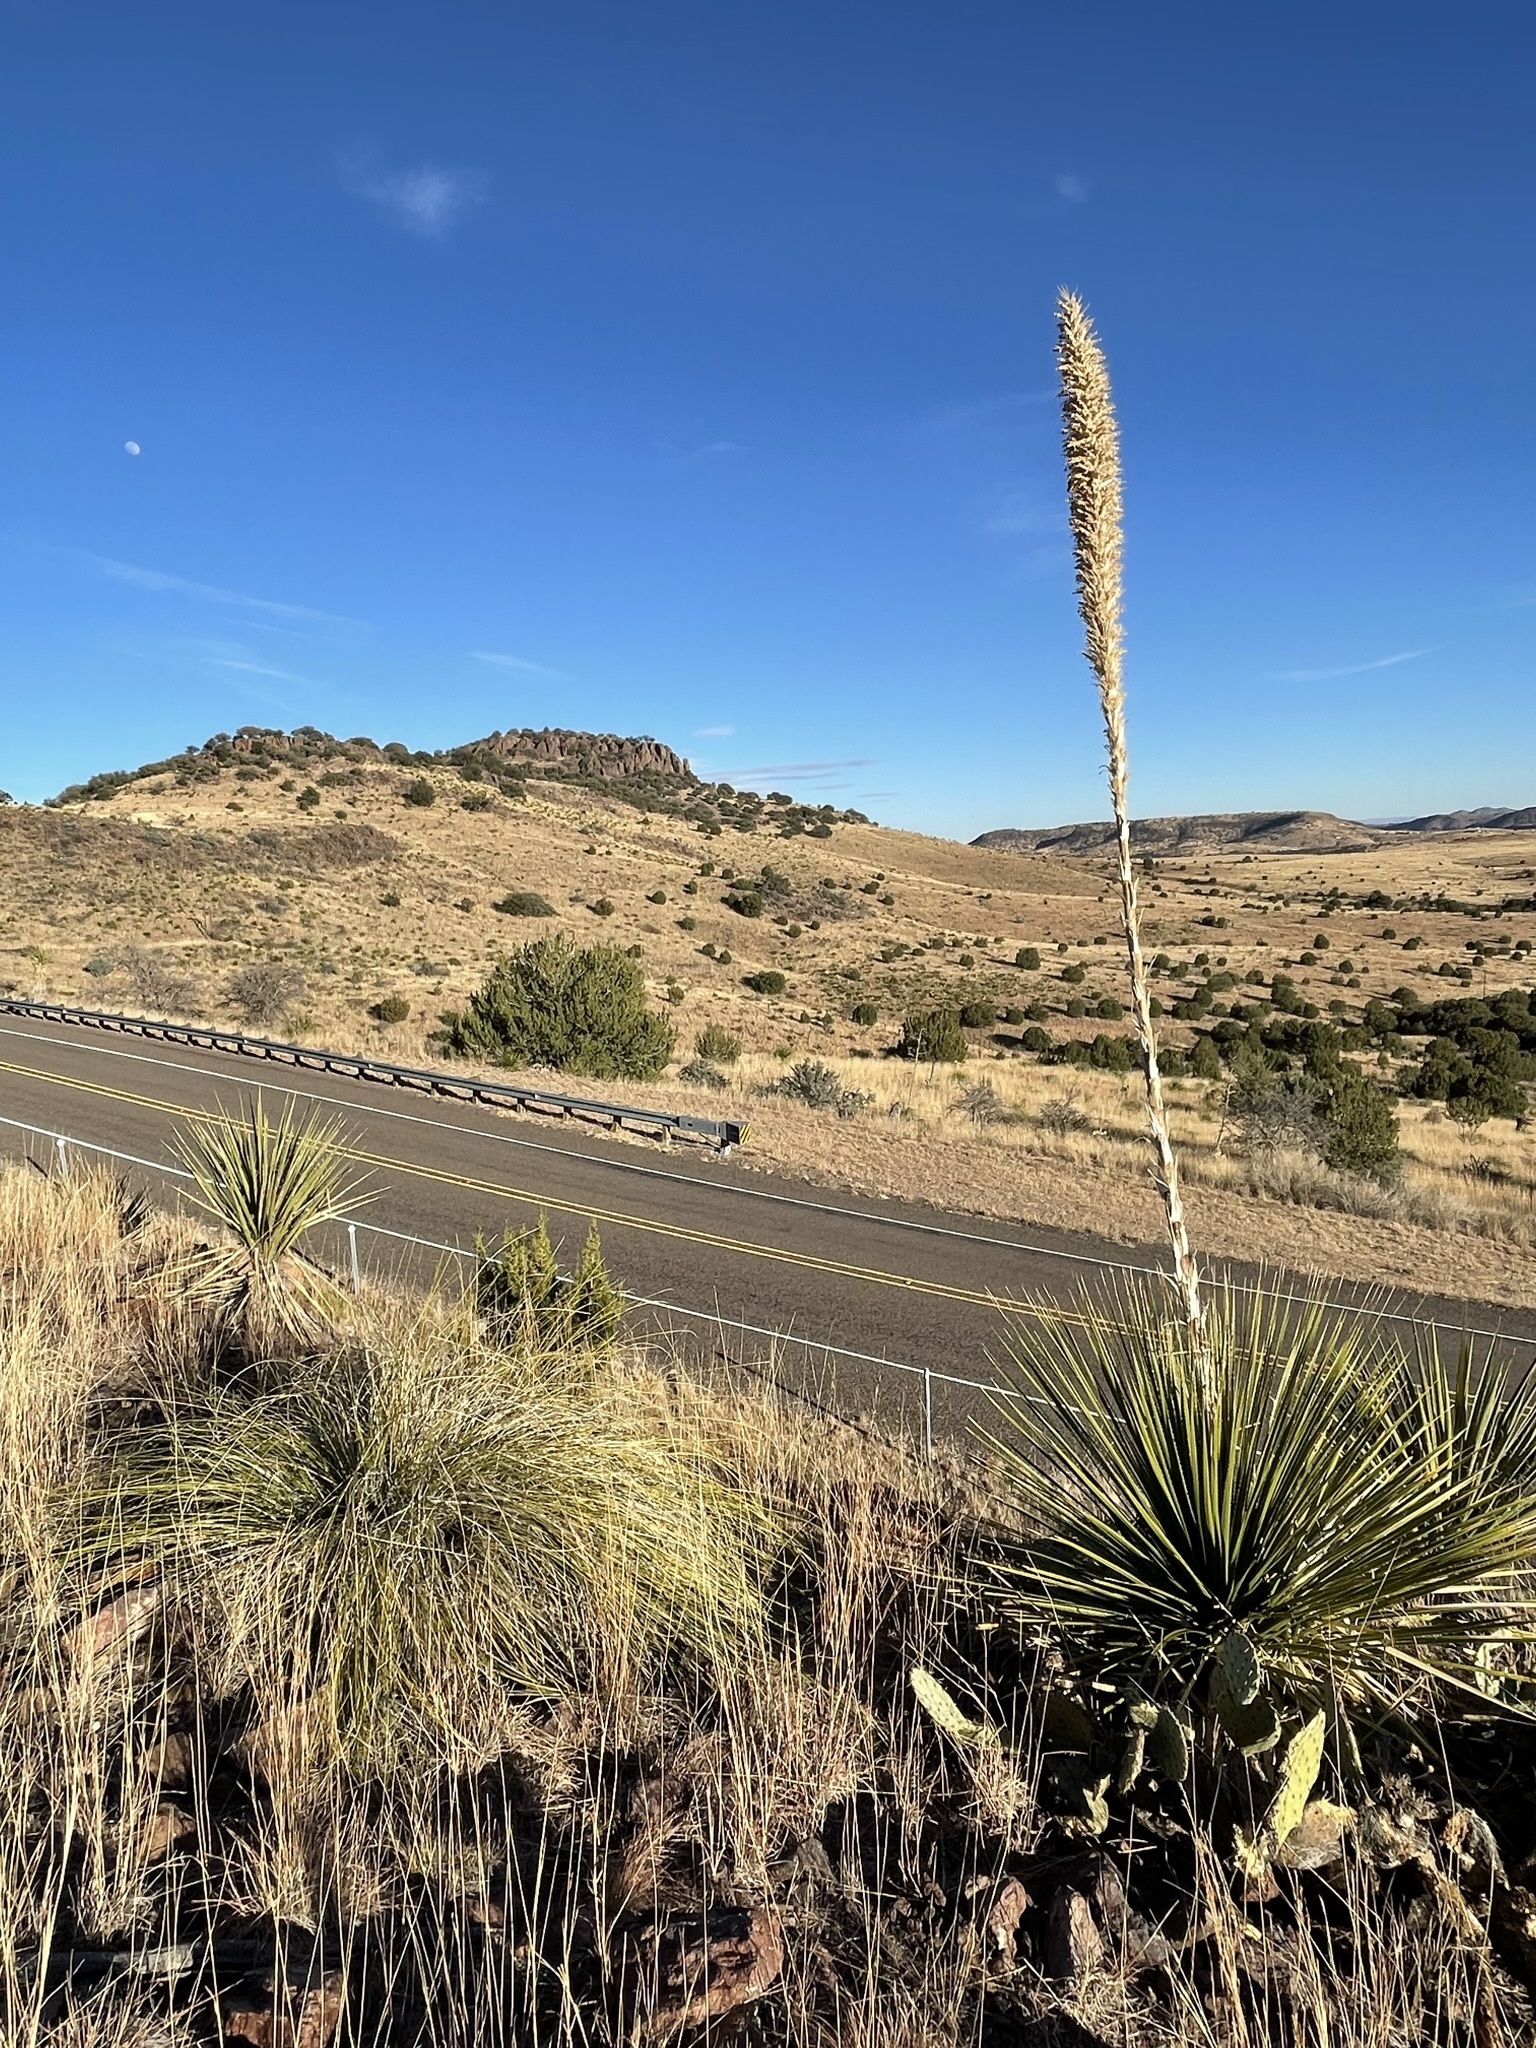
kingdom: Plantae
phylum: Tracheophyta
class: Liliopsida
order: Asparagales
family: Asparagaceae
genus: Dasylirion
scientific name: Dasylirion leiophyllum
